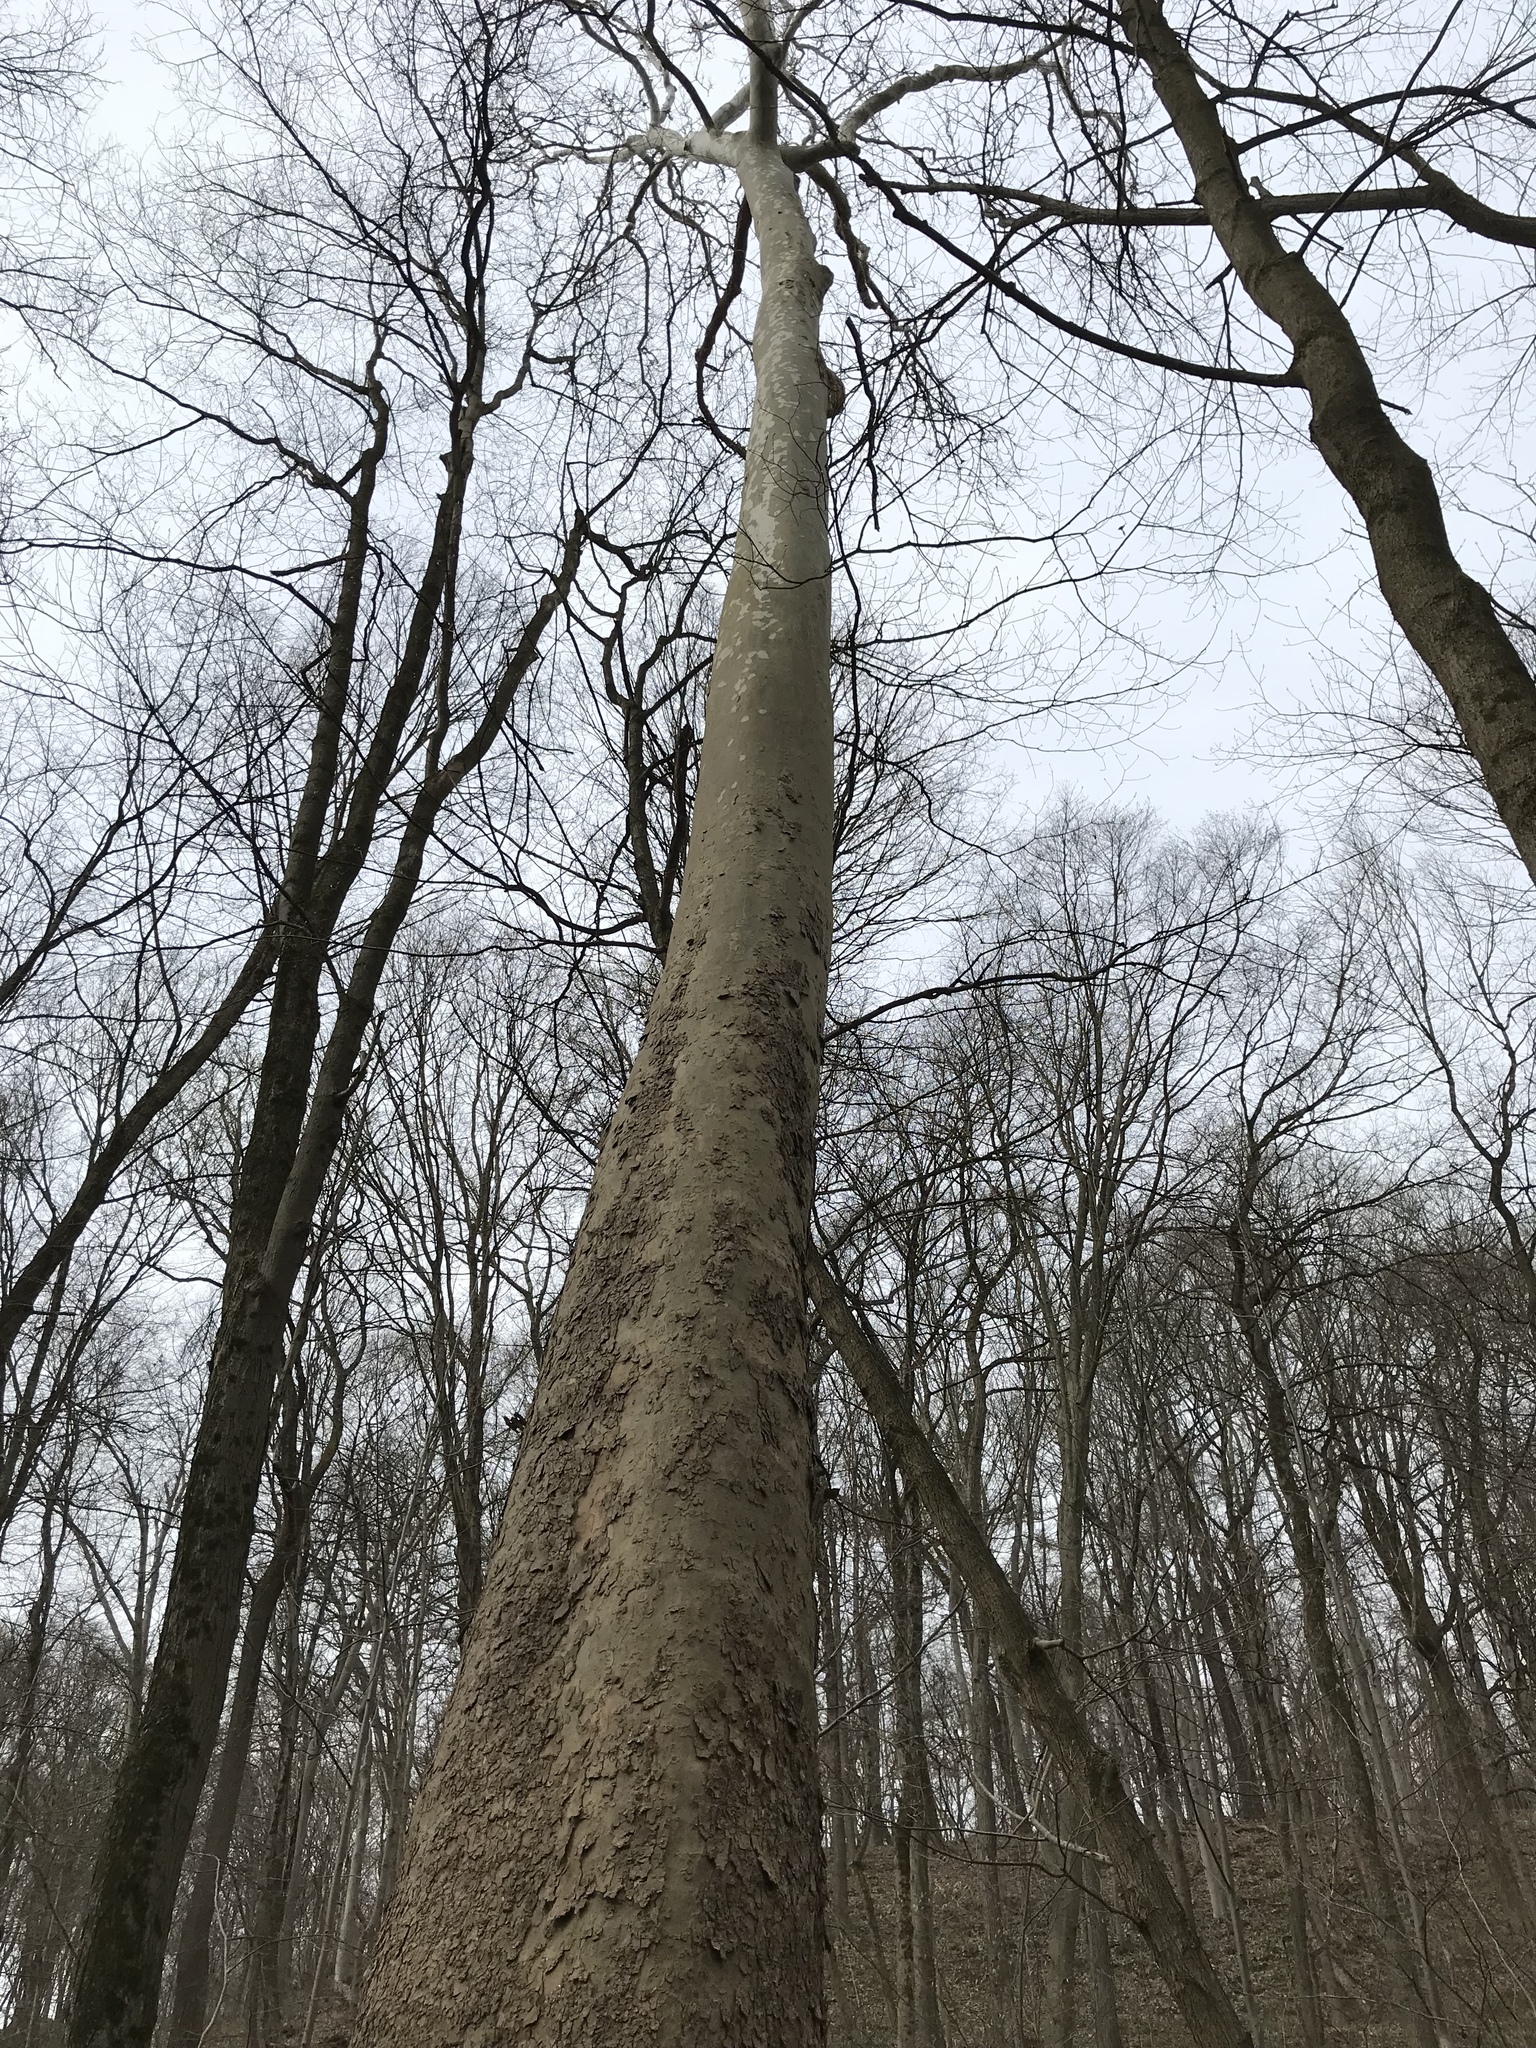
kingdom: Plantae
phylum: Tracheophyta
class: Magnoliopsida
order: Proteales
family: Platanaceae
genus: Platanus
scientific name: Platanus occidentalis
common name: American sycamore
